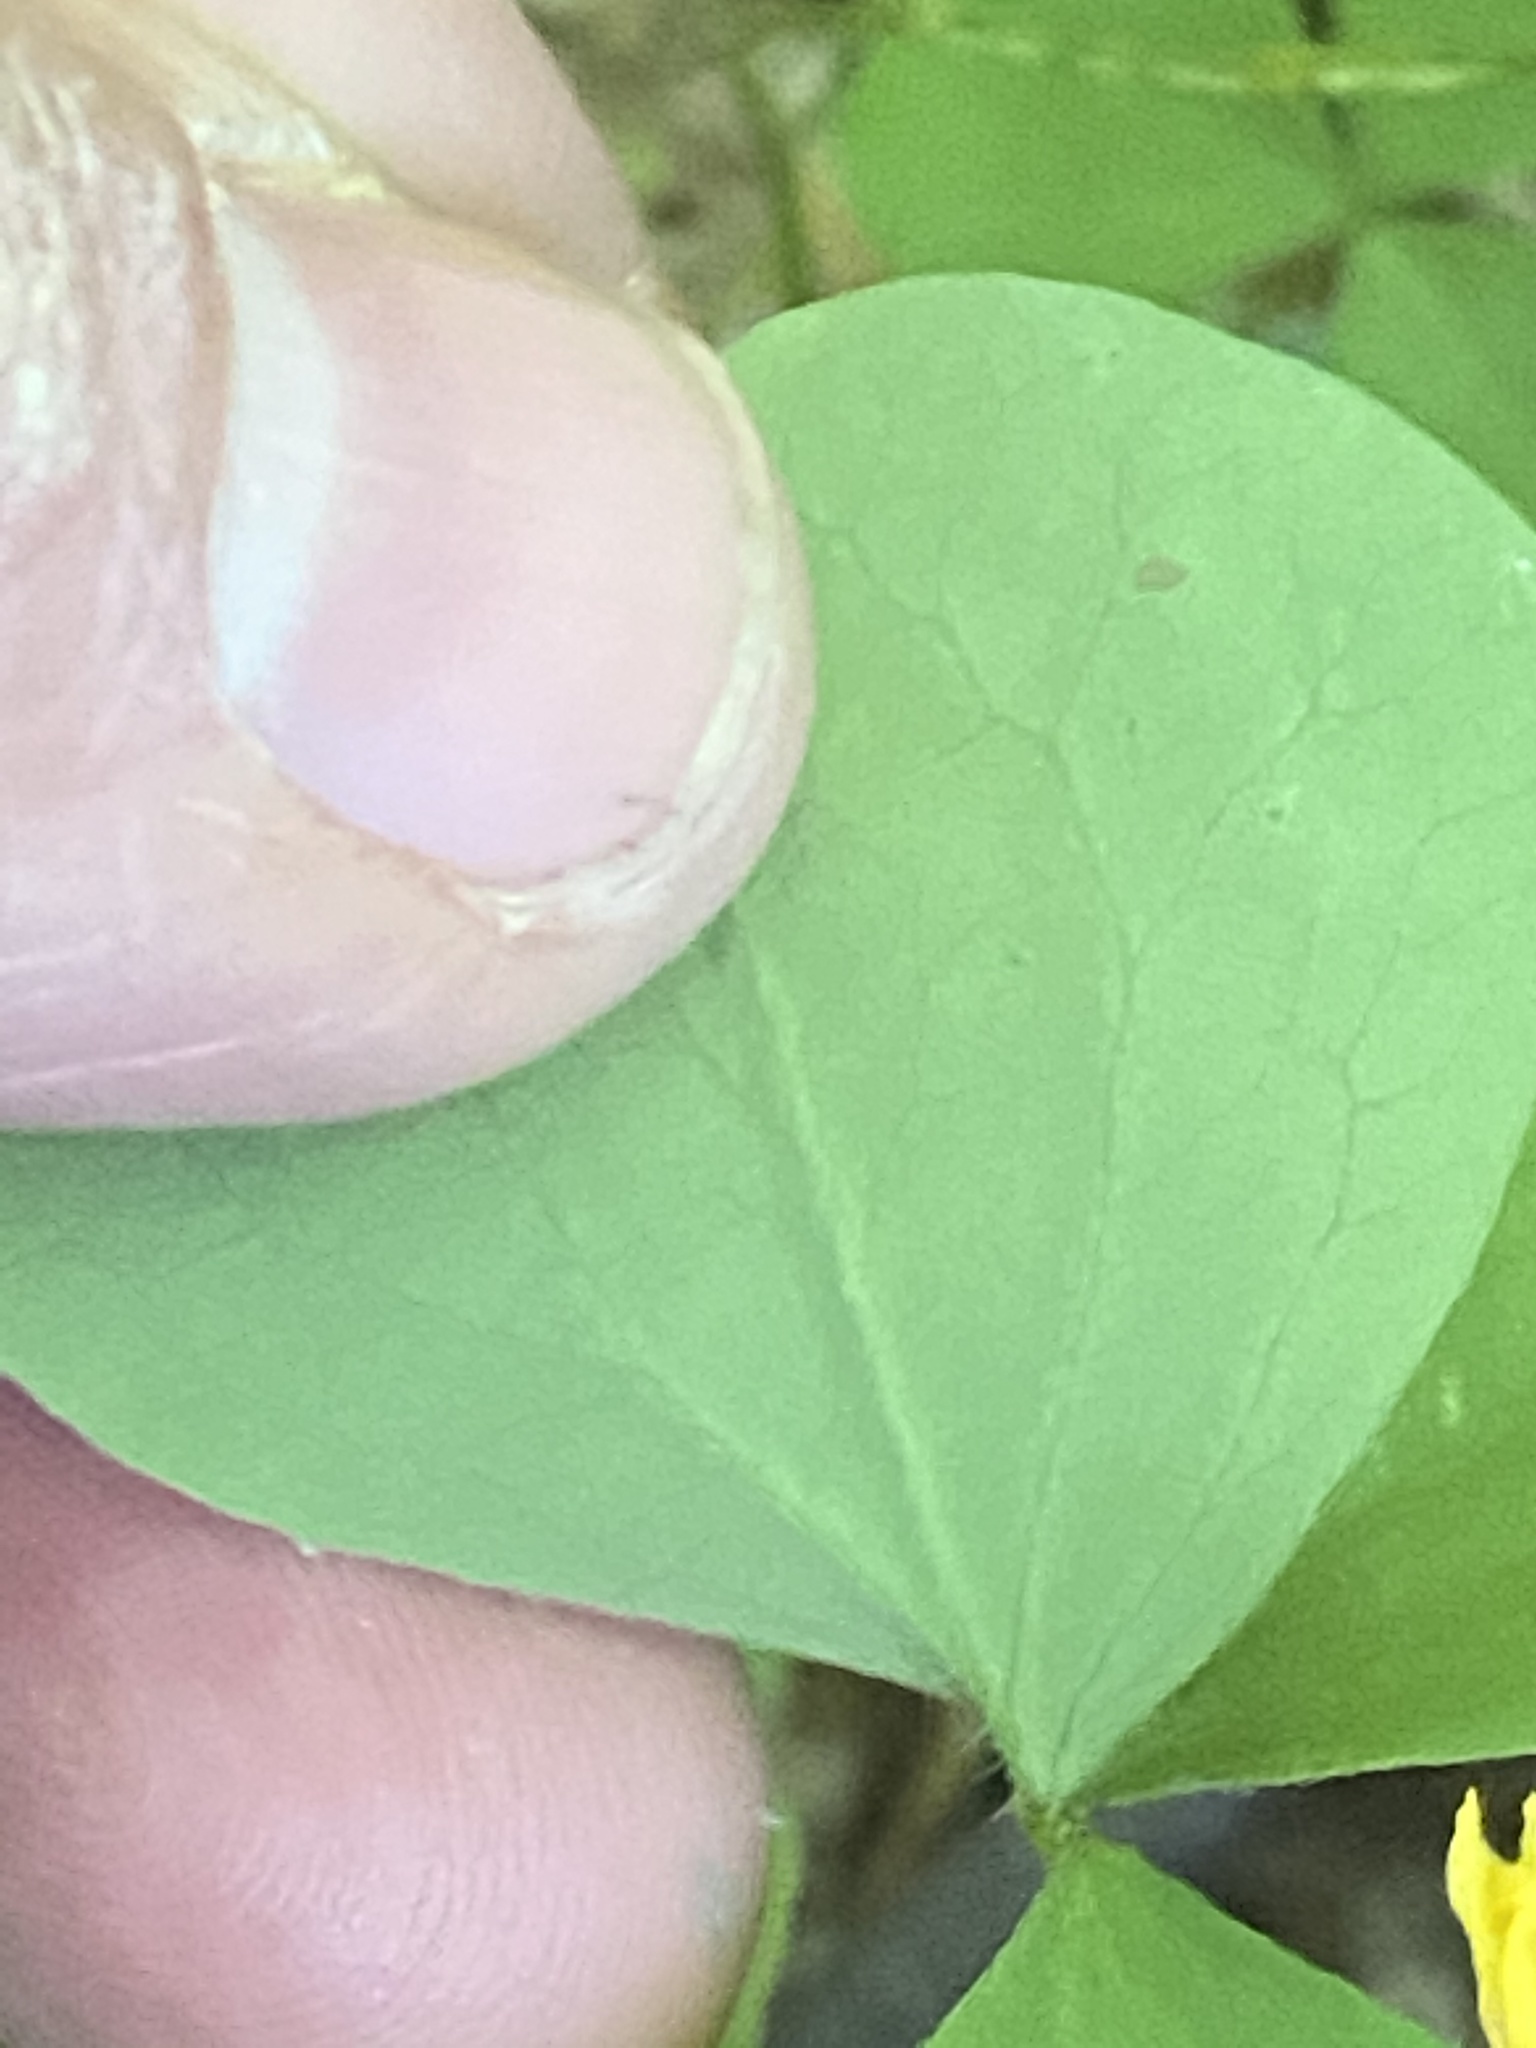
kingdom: Plantae
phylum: Tracheophyta
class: Magnoliopsida
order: Oxalidales
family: Oxalidaceae
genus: Oxalis
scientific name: Oxalis illinoensis
